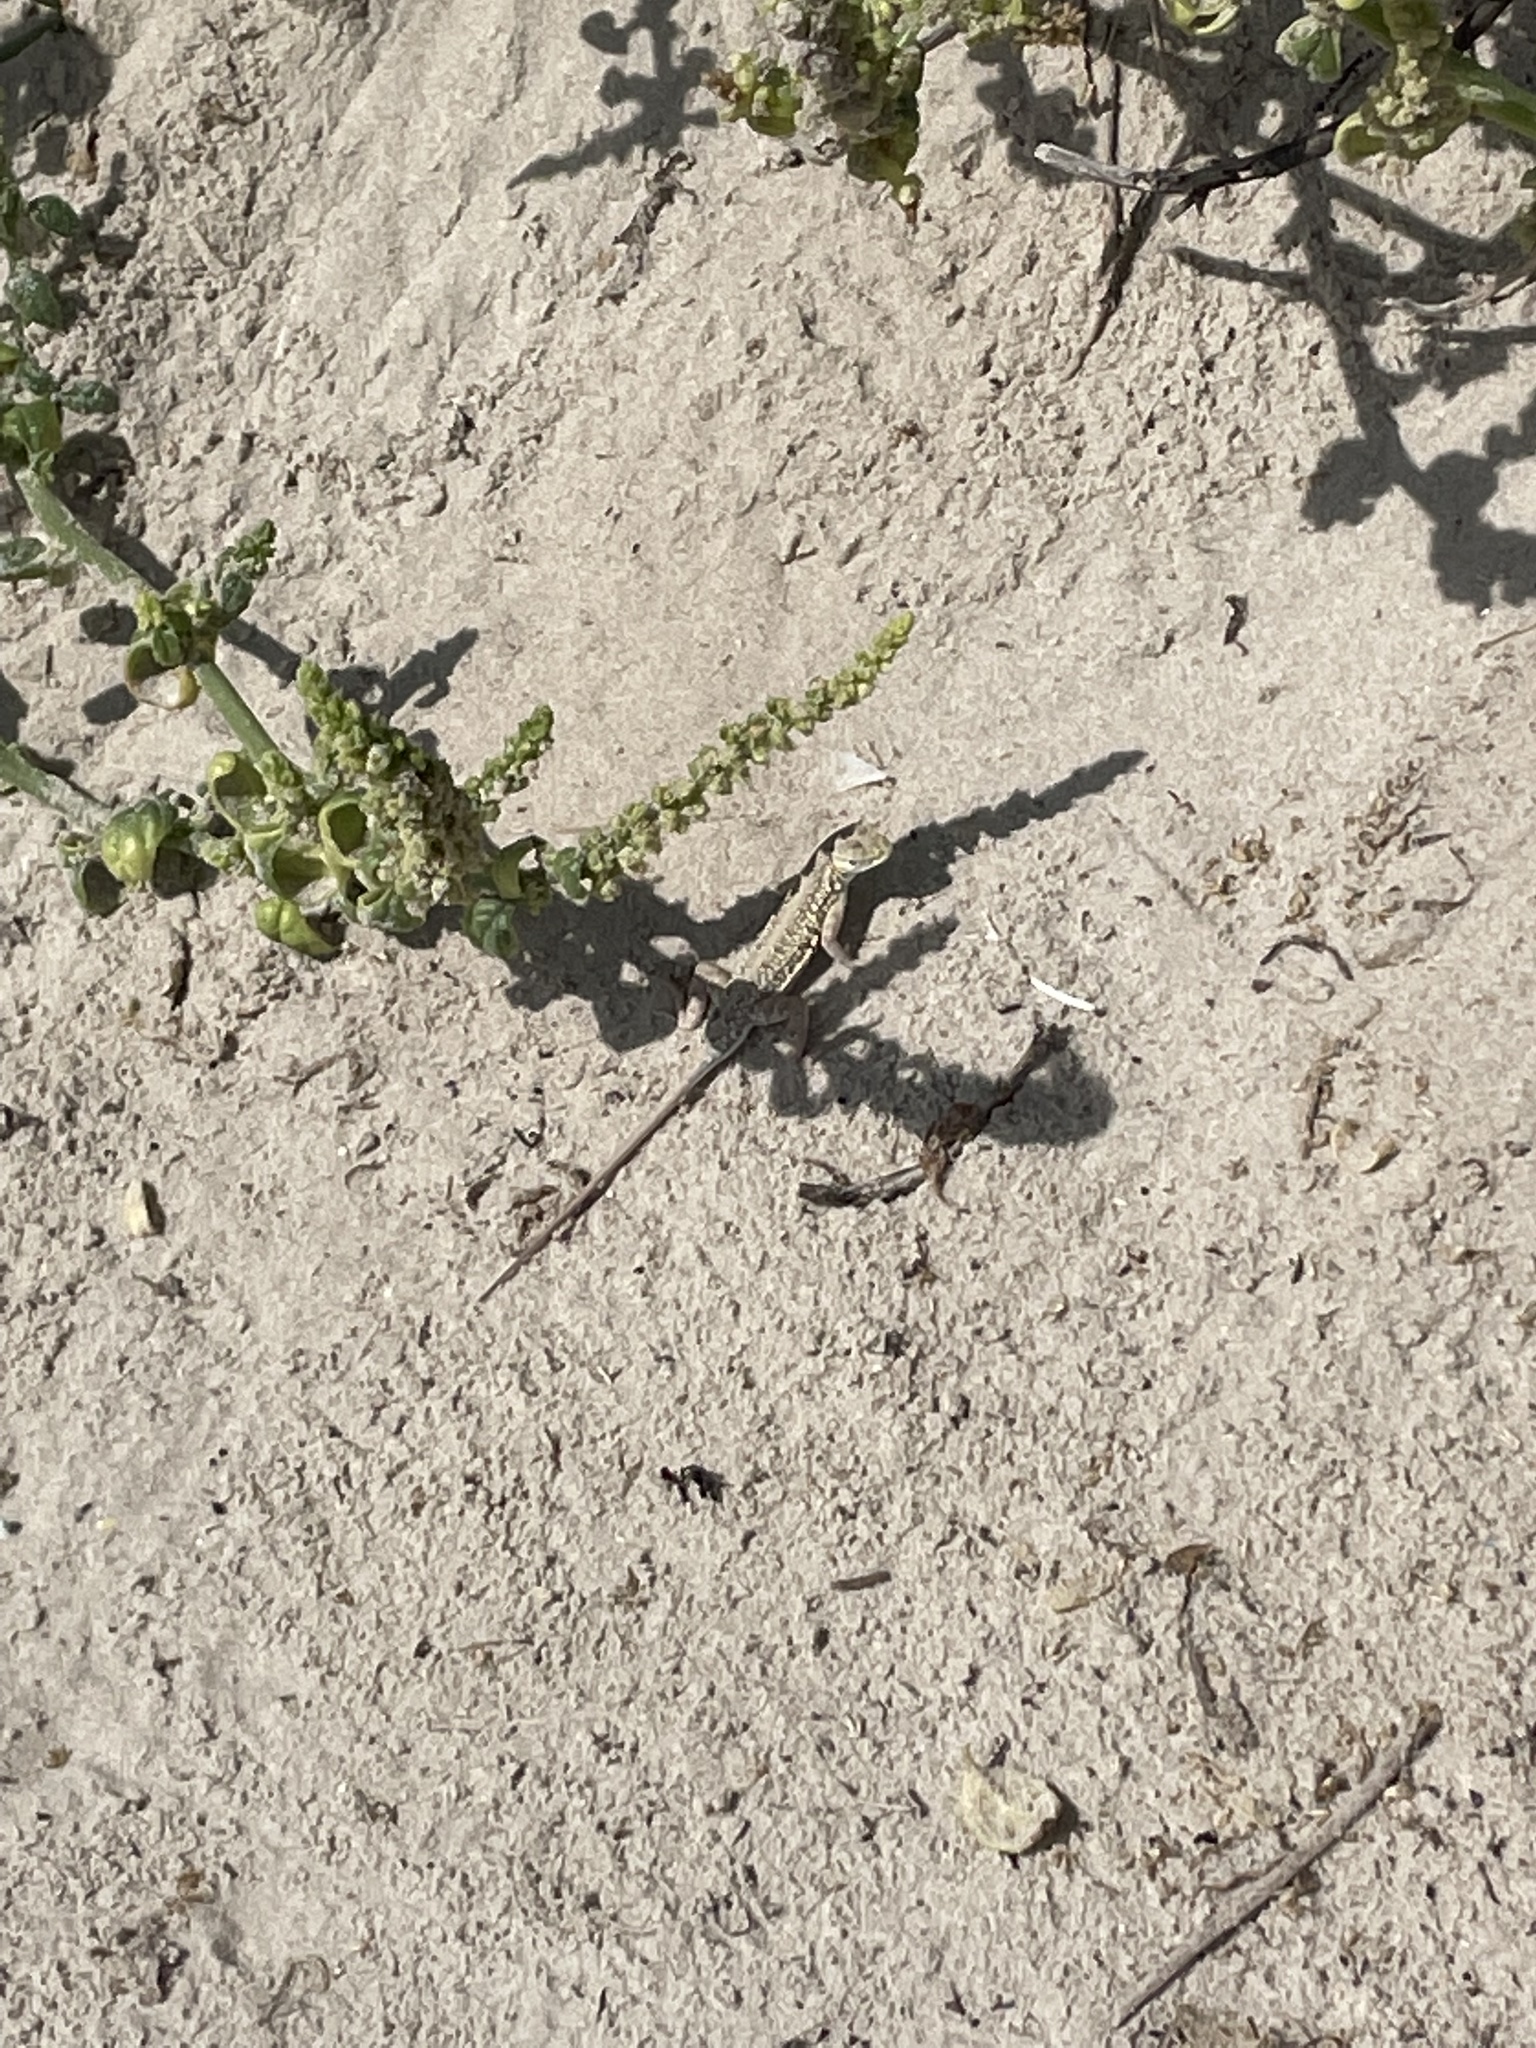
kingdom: Animalia
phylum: Chordata
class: Squamata
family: Phrynosomatidae
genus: Holbrookia
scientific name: Holbrookia propinqua
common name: Keeled earless lizard
